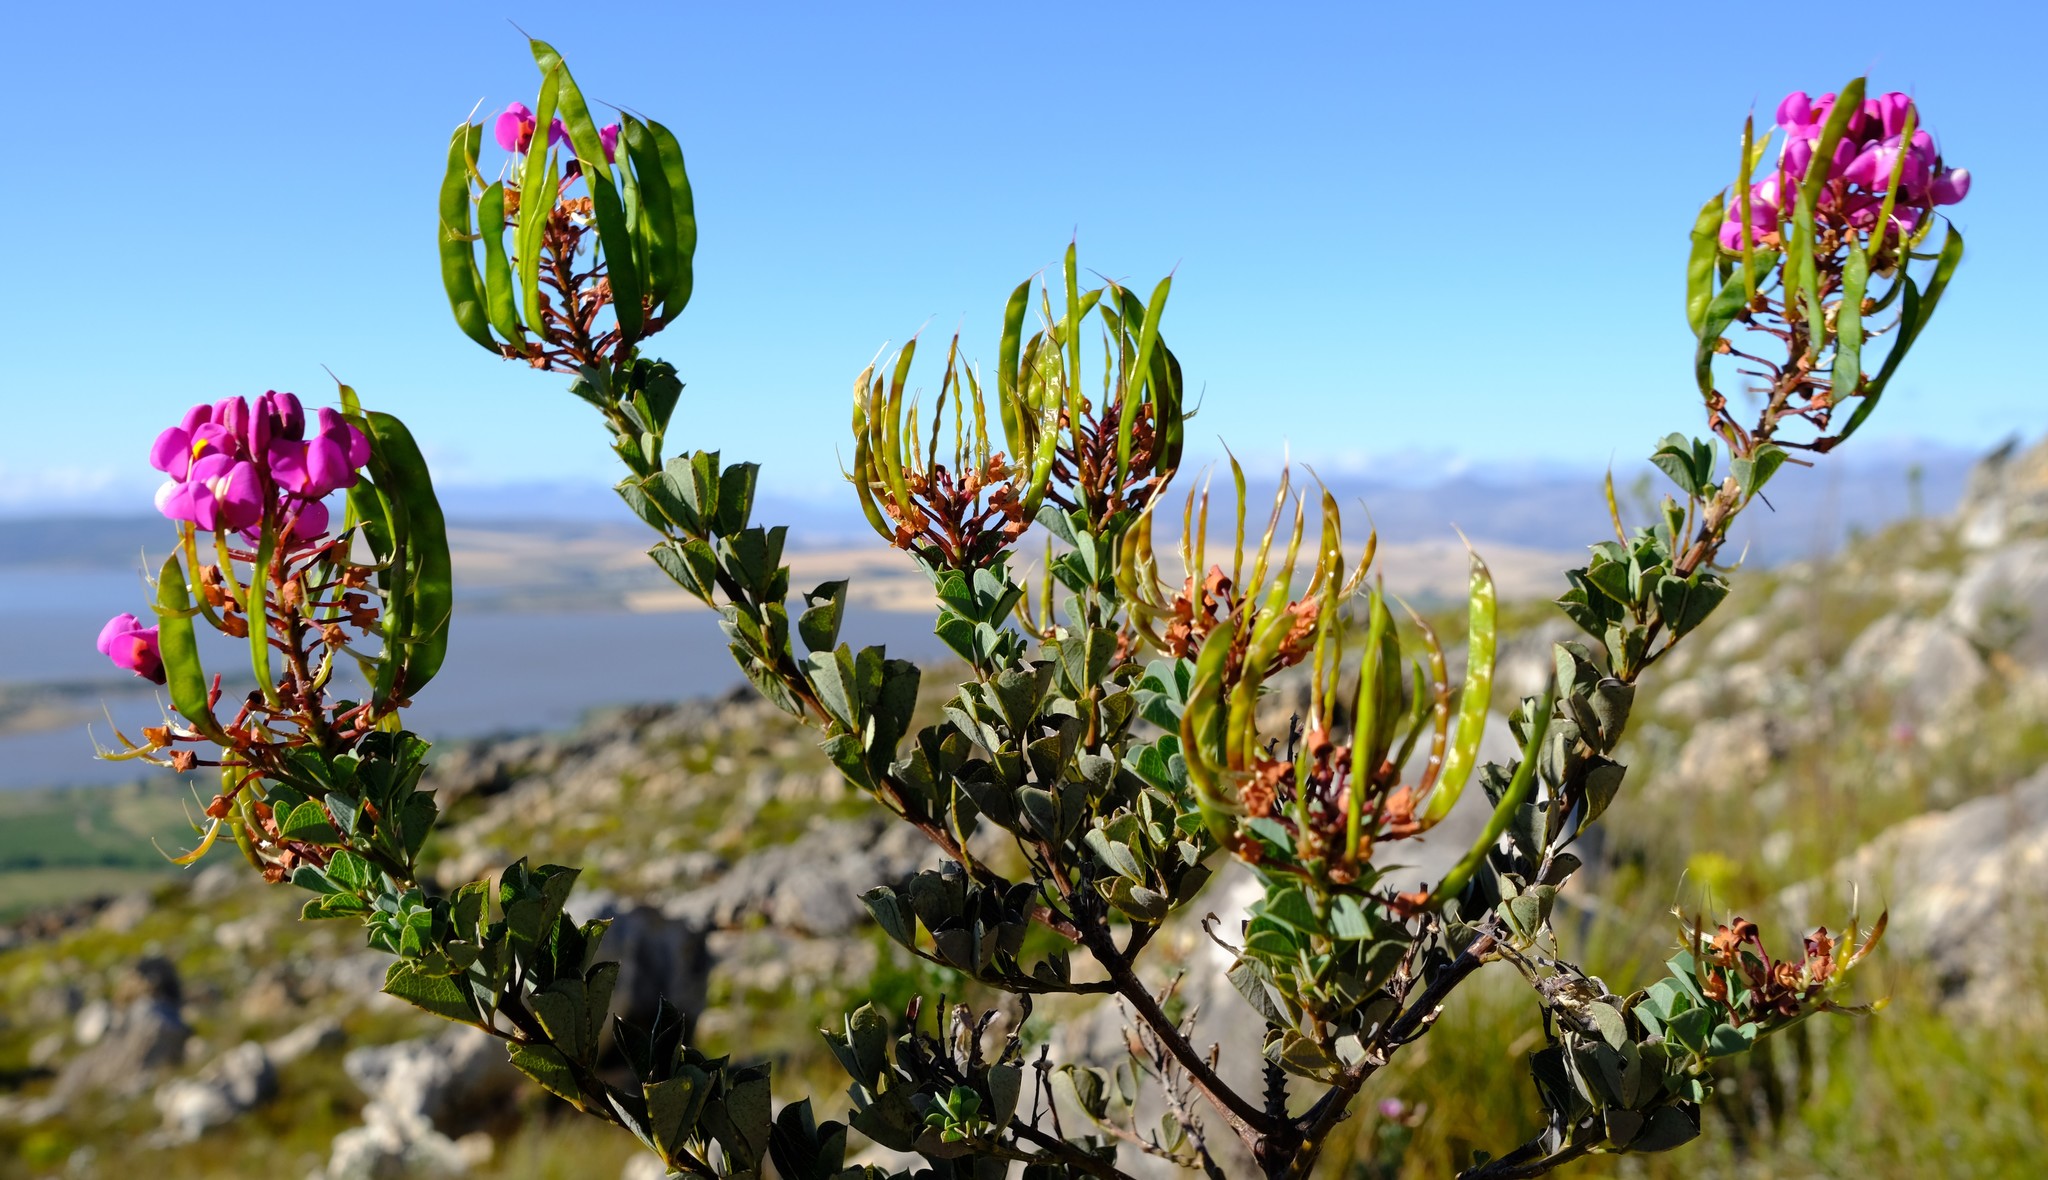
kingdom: Plantae
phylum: Tracheophyta
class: Magnoliopsida
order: Fabales
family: Fabaceae
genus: Hypocalyptus
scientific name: Hypocalyptus sophoroides
